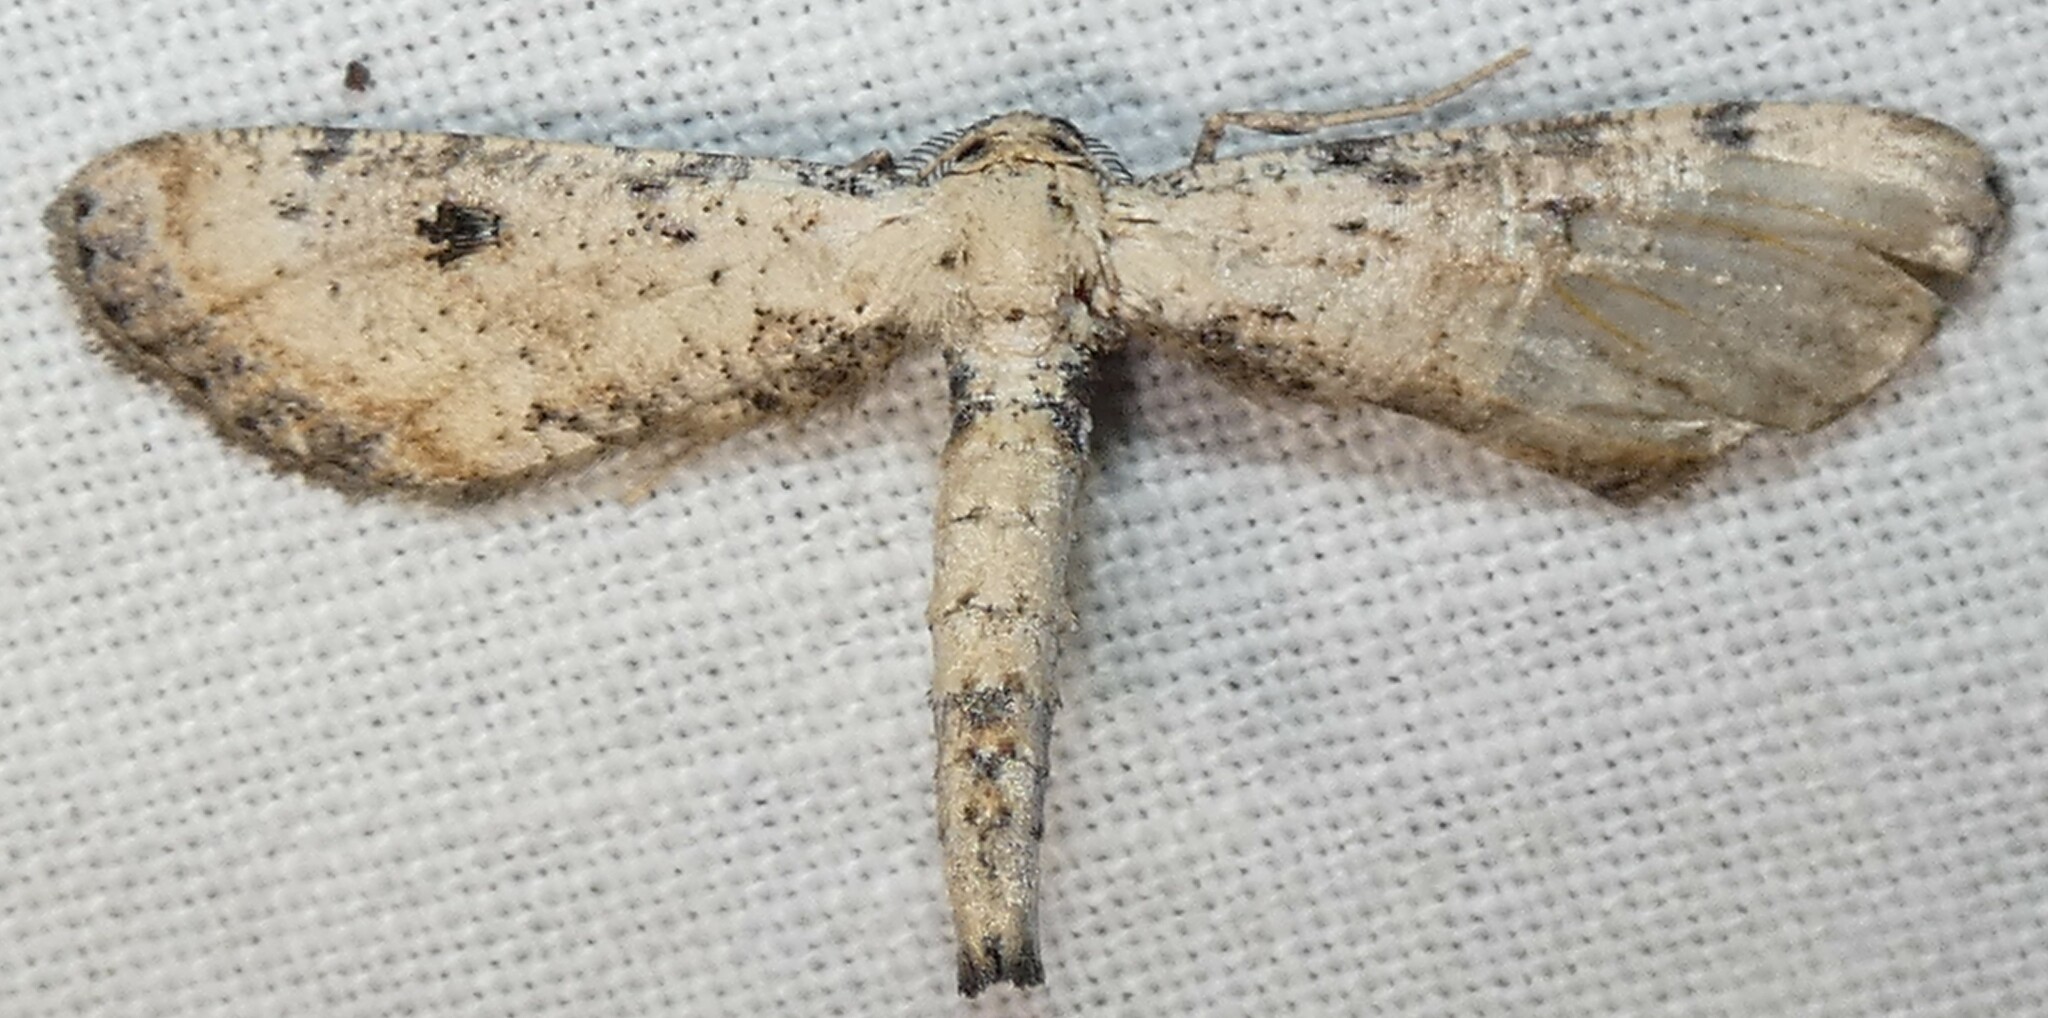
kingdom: Animalia
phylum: Arthropoda
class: Insecta
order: Lepidoptera
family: Geometridae
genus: Tornos
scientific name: Tornos scolopacinaria
